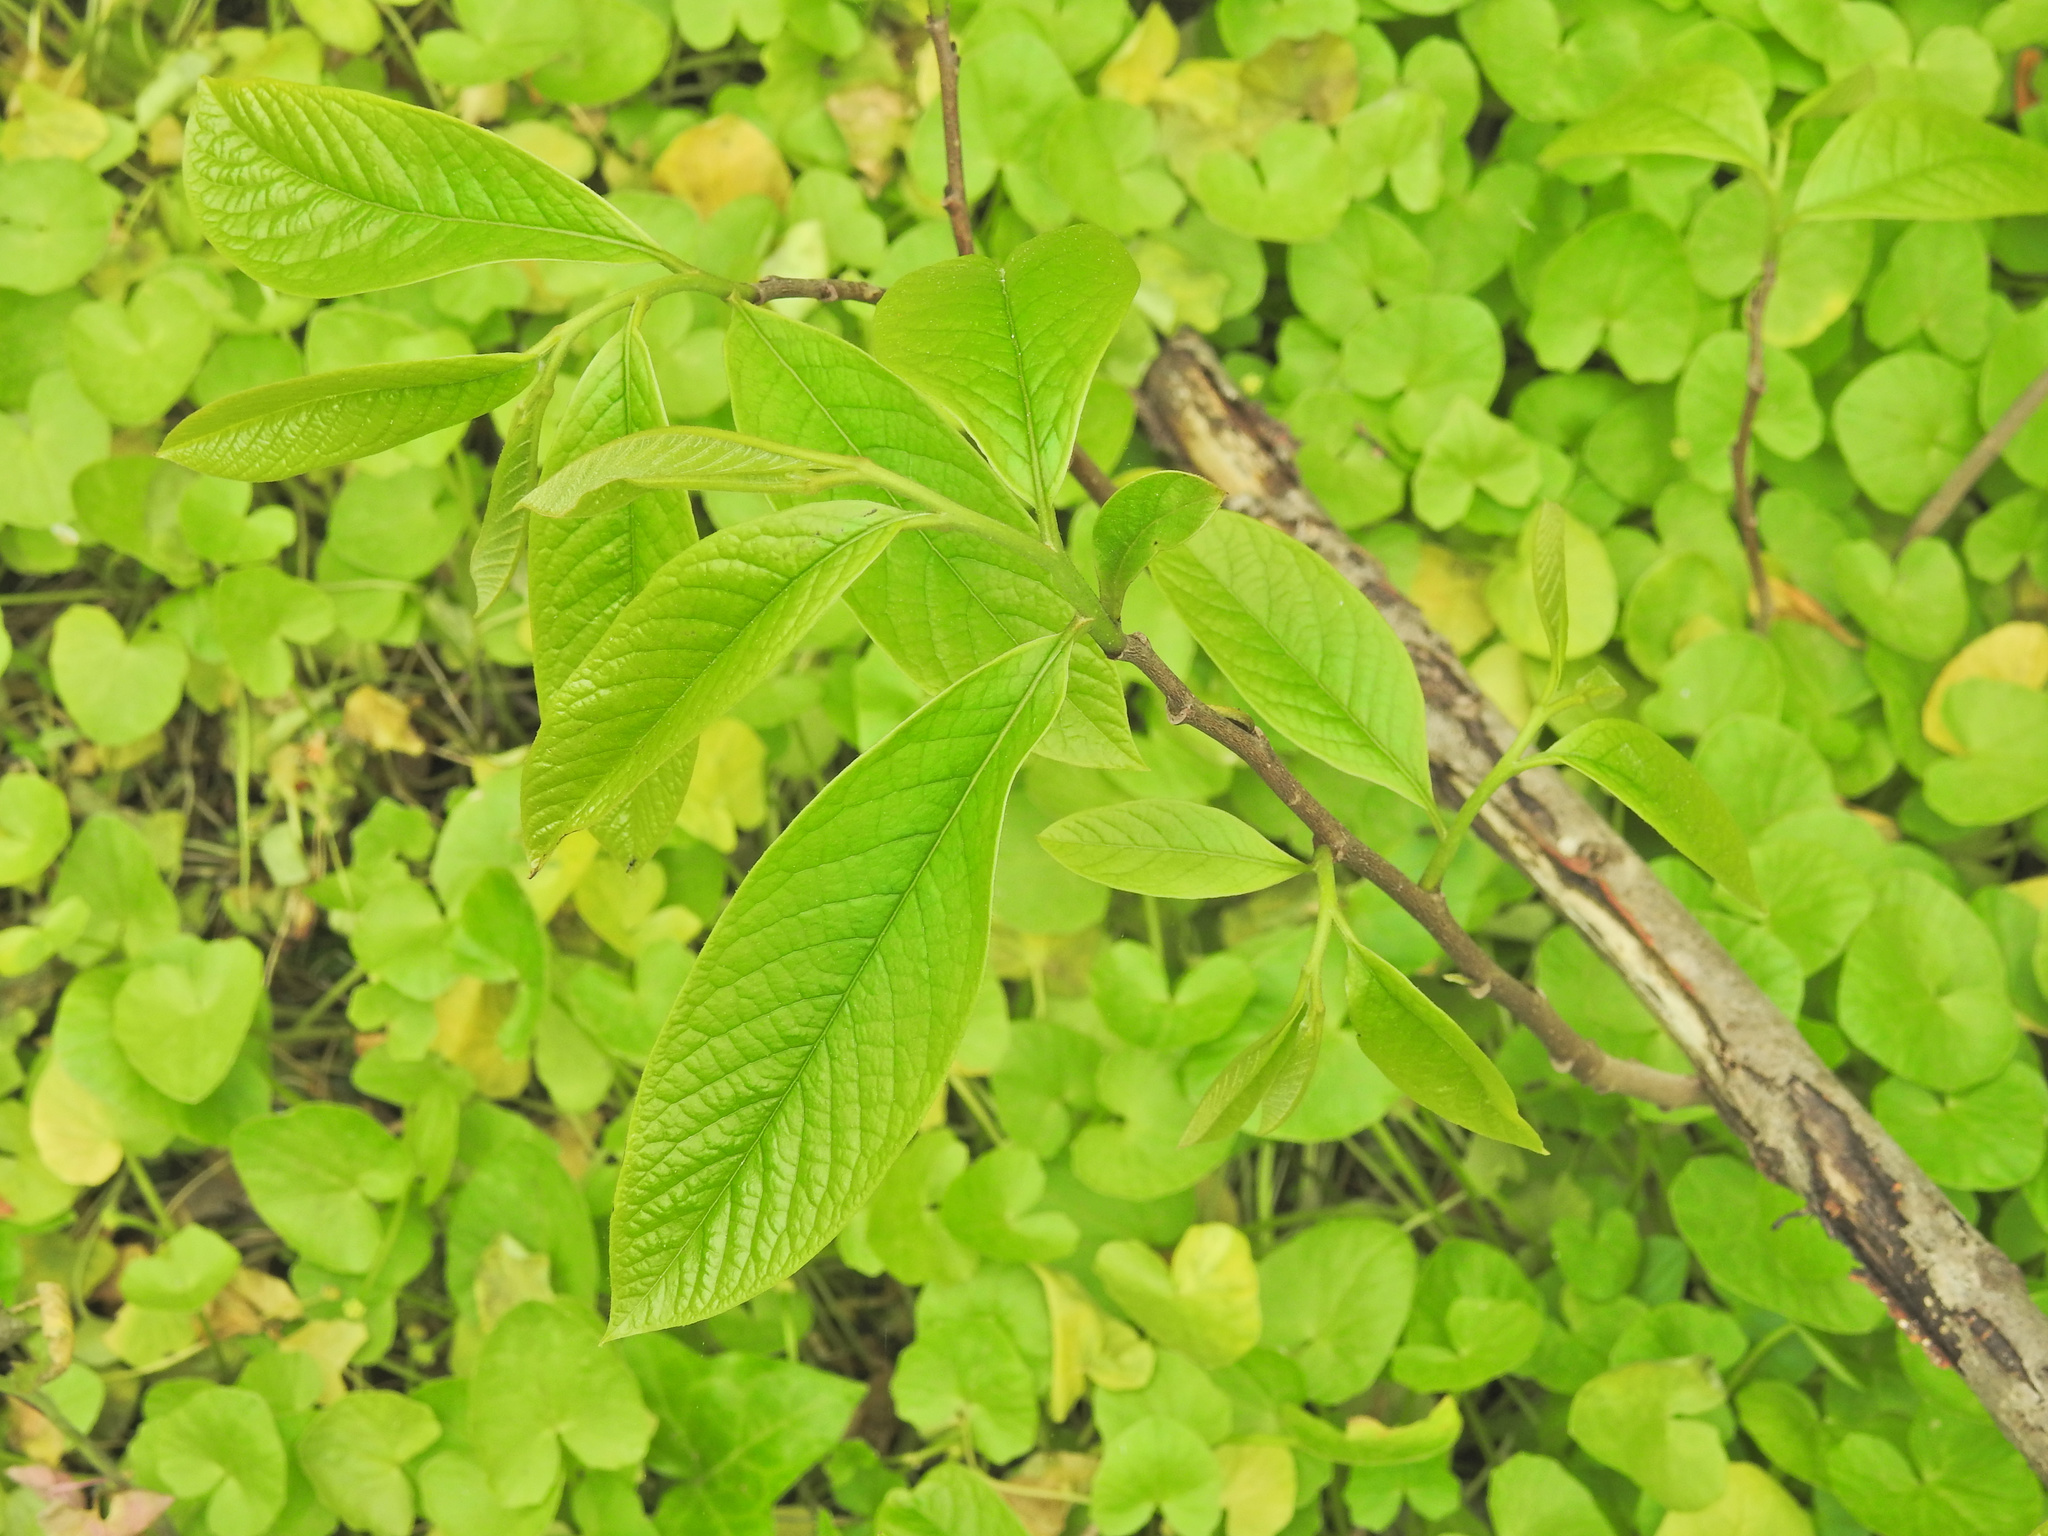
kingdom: Plantae
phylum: Tracheophyta
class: Magnoliopsida
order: Magnoliales
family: Annonaceae
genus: Asimina
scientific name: Asimina triloba
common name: Dog-banana
